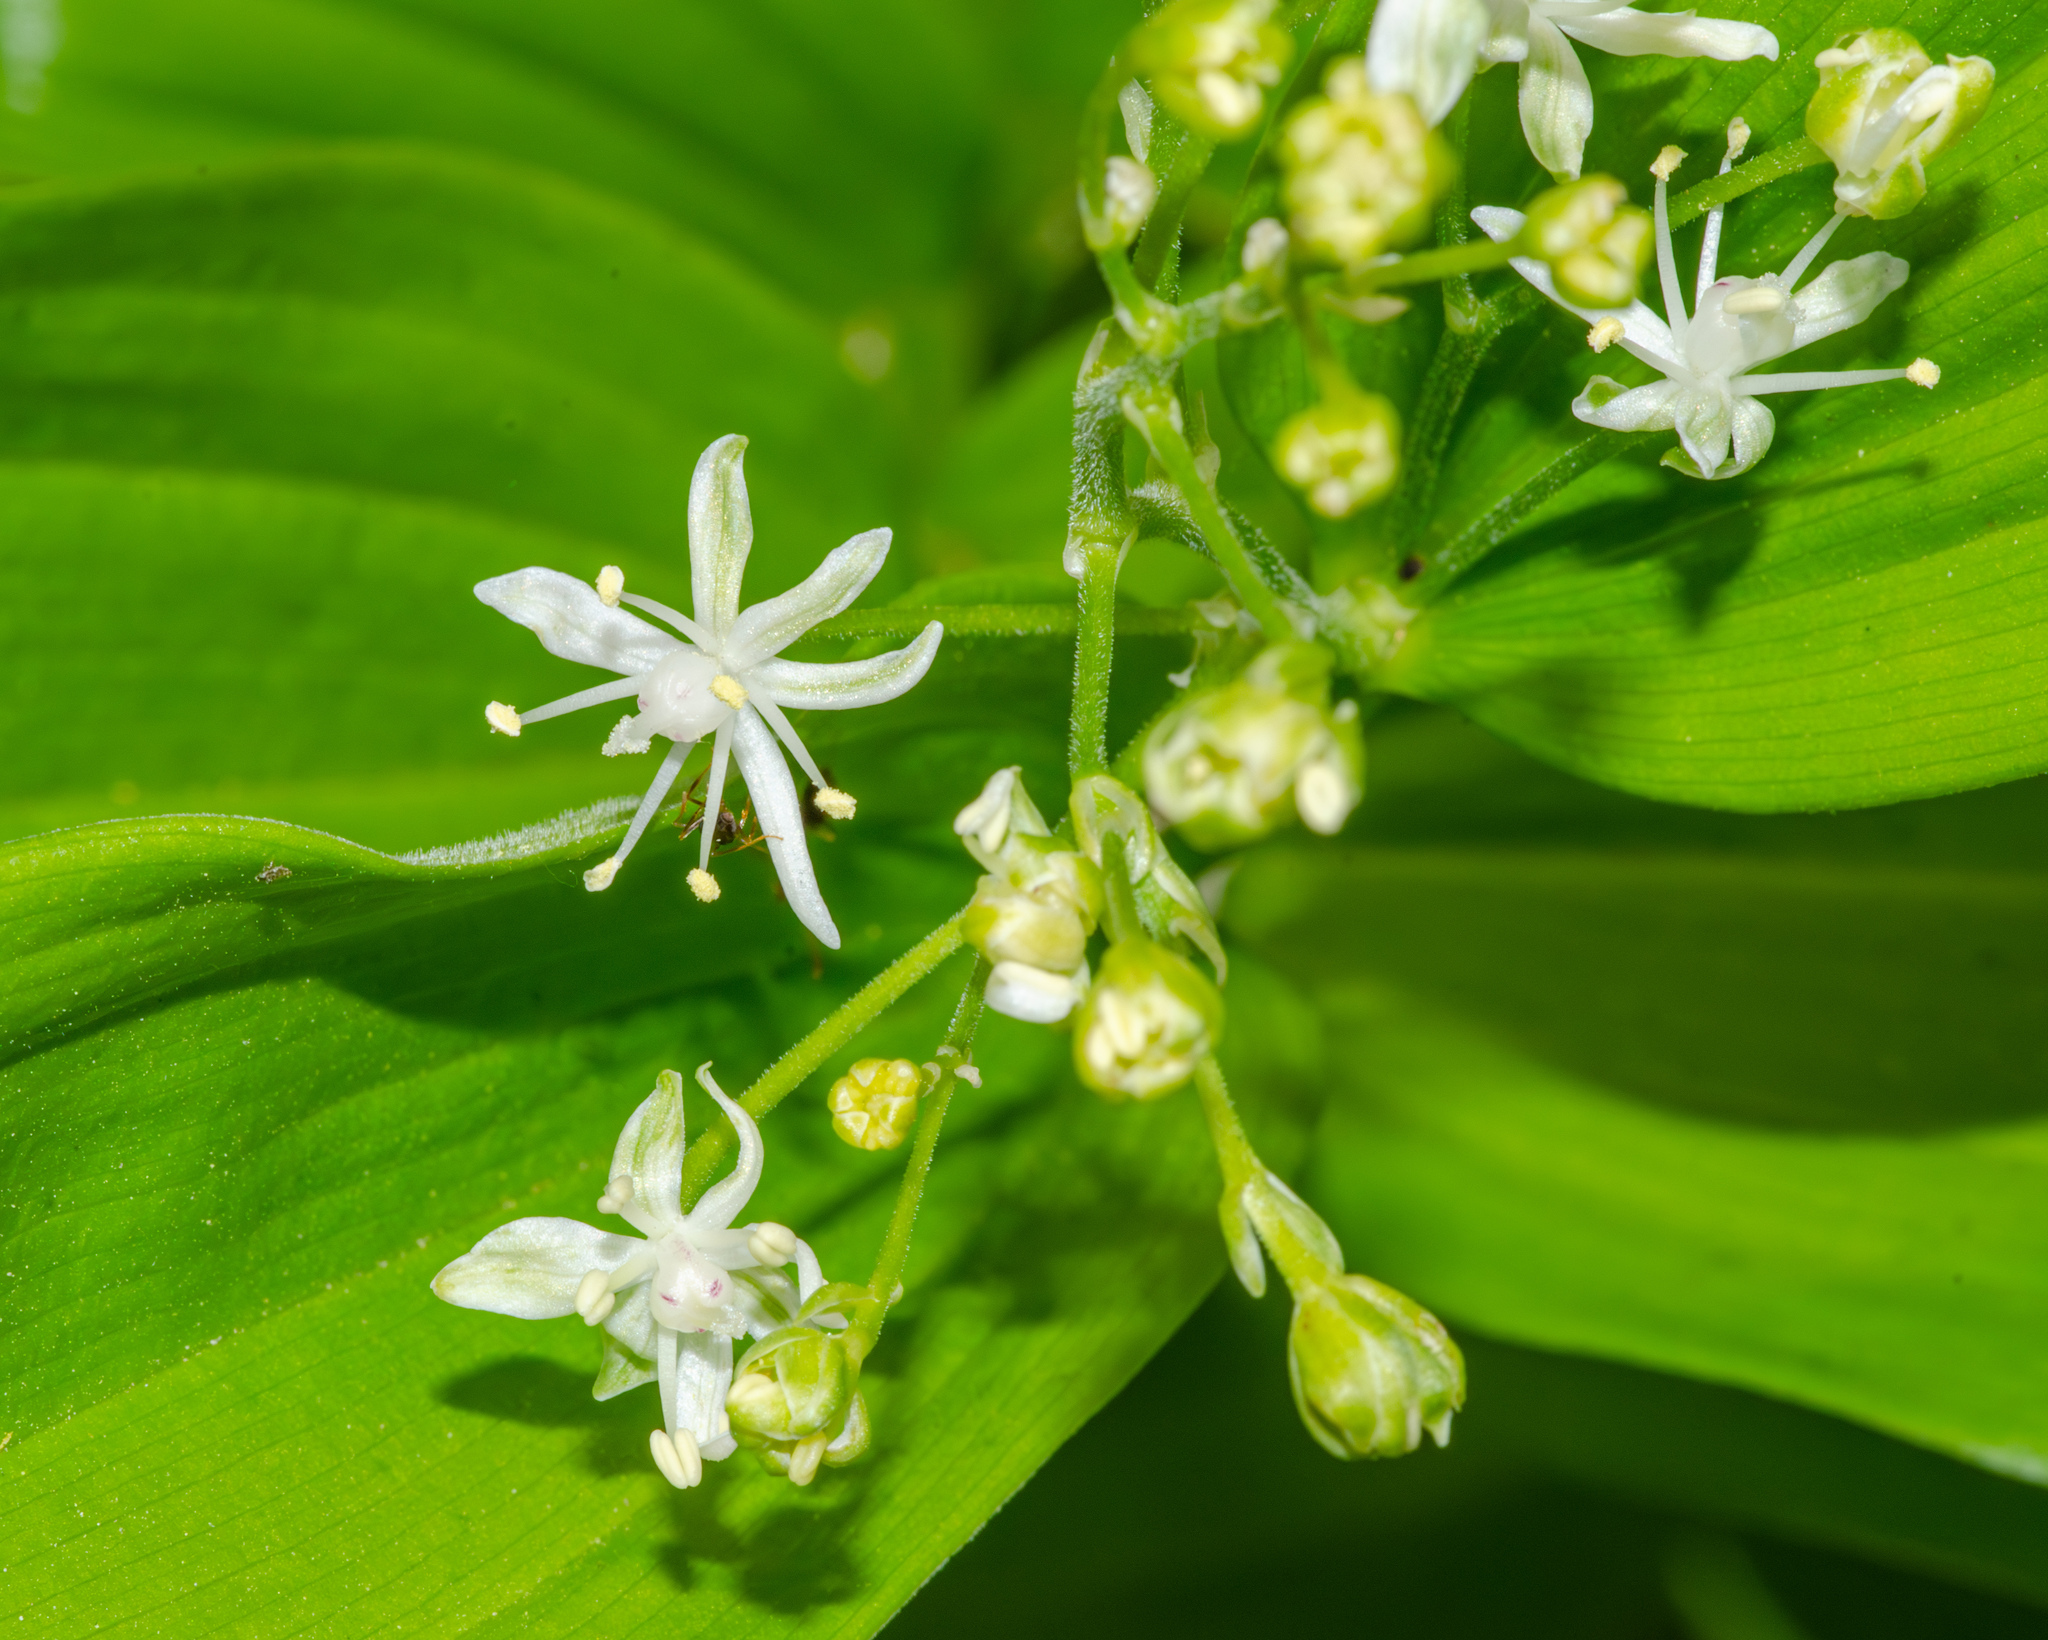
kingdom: Plantae
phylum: Tracheophyta
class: Liliopsida
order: Asparagales
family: Asparagaceae
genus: Maianthemum
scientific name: Maianthemum stellatum
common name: Little false solomon's seal
